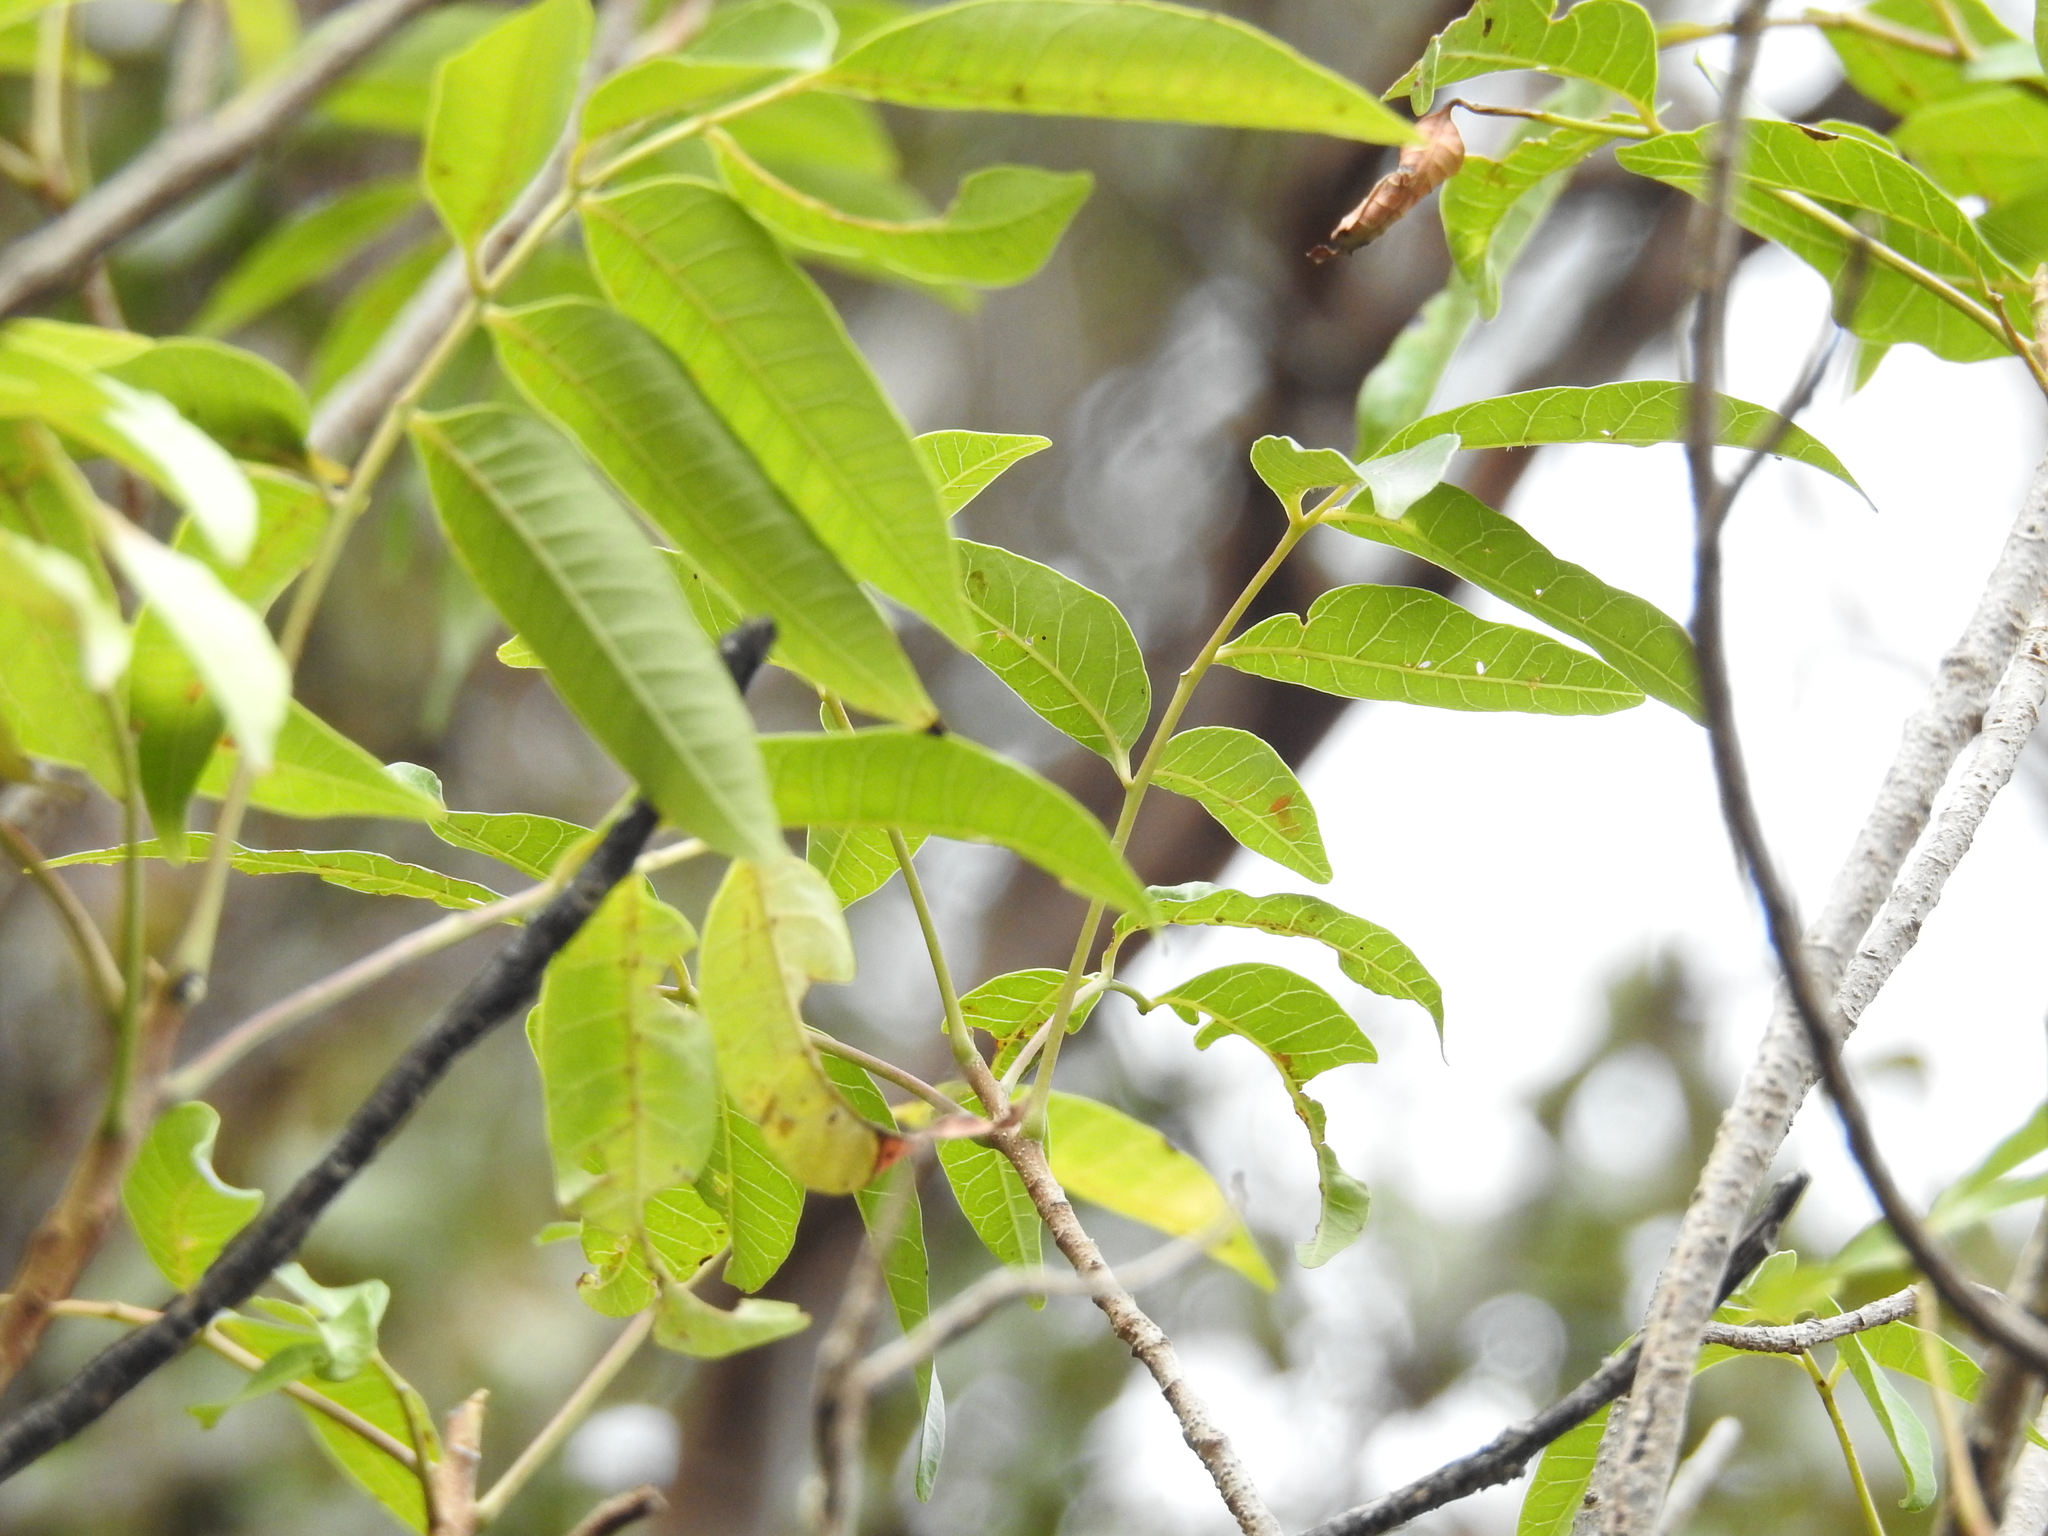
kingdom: Plantae
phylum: Tracheophyta
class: Magnoliopsida
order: Sapindales
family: Anacardiaceae
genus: Rhodosphaera
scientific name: Rhodosphaera rhodanthema
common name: Tulip satinwood
